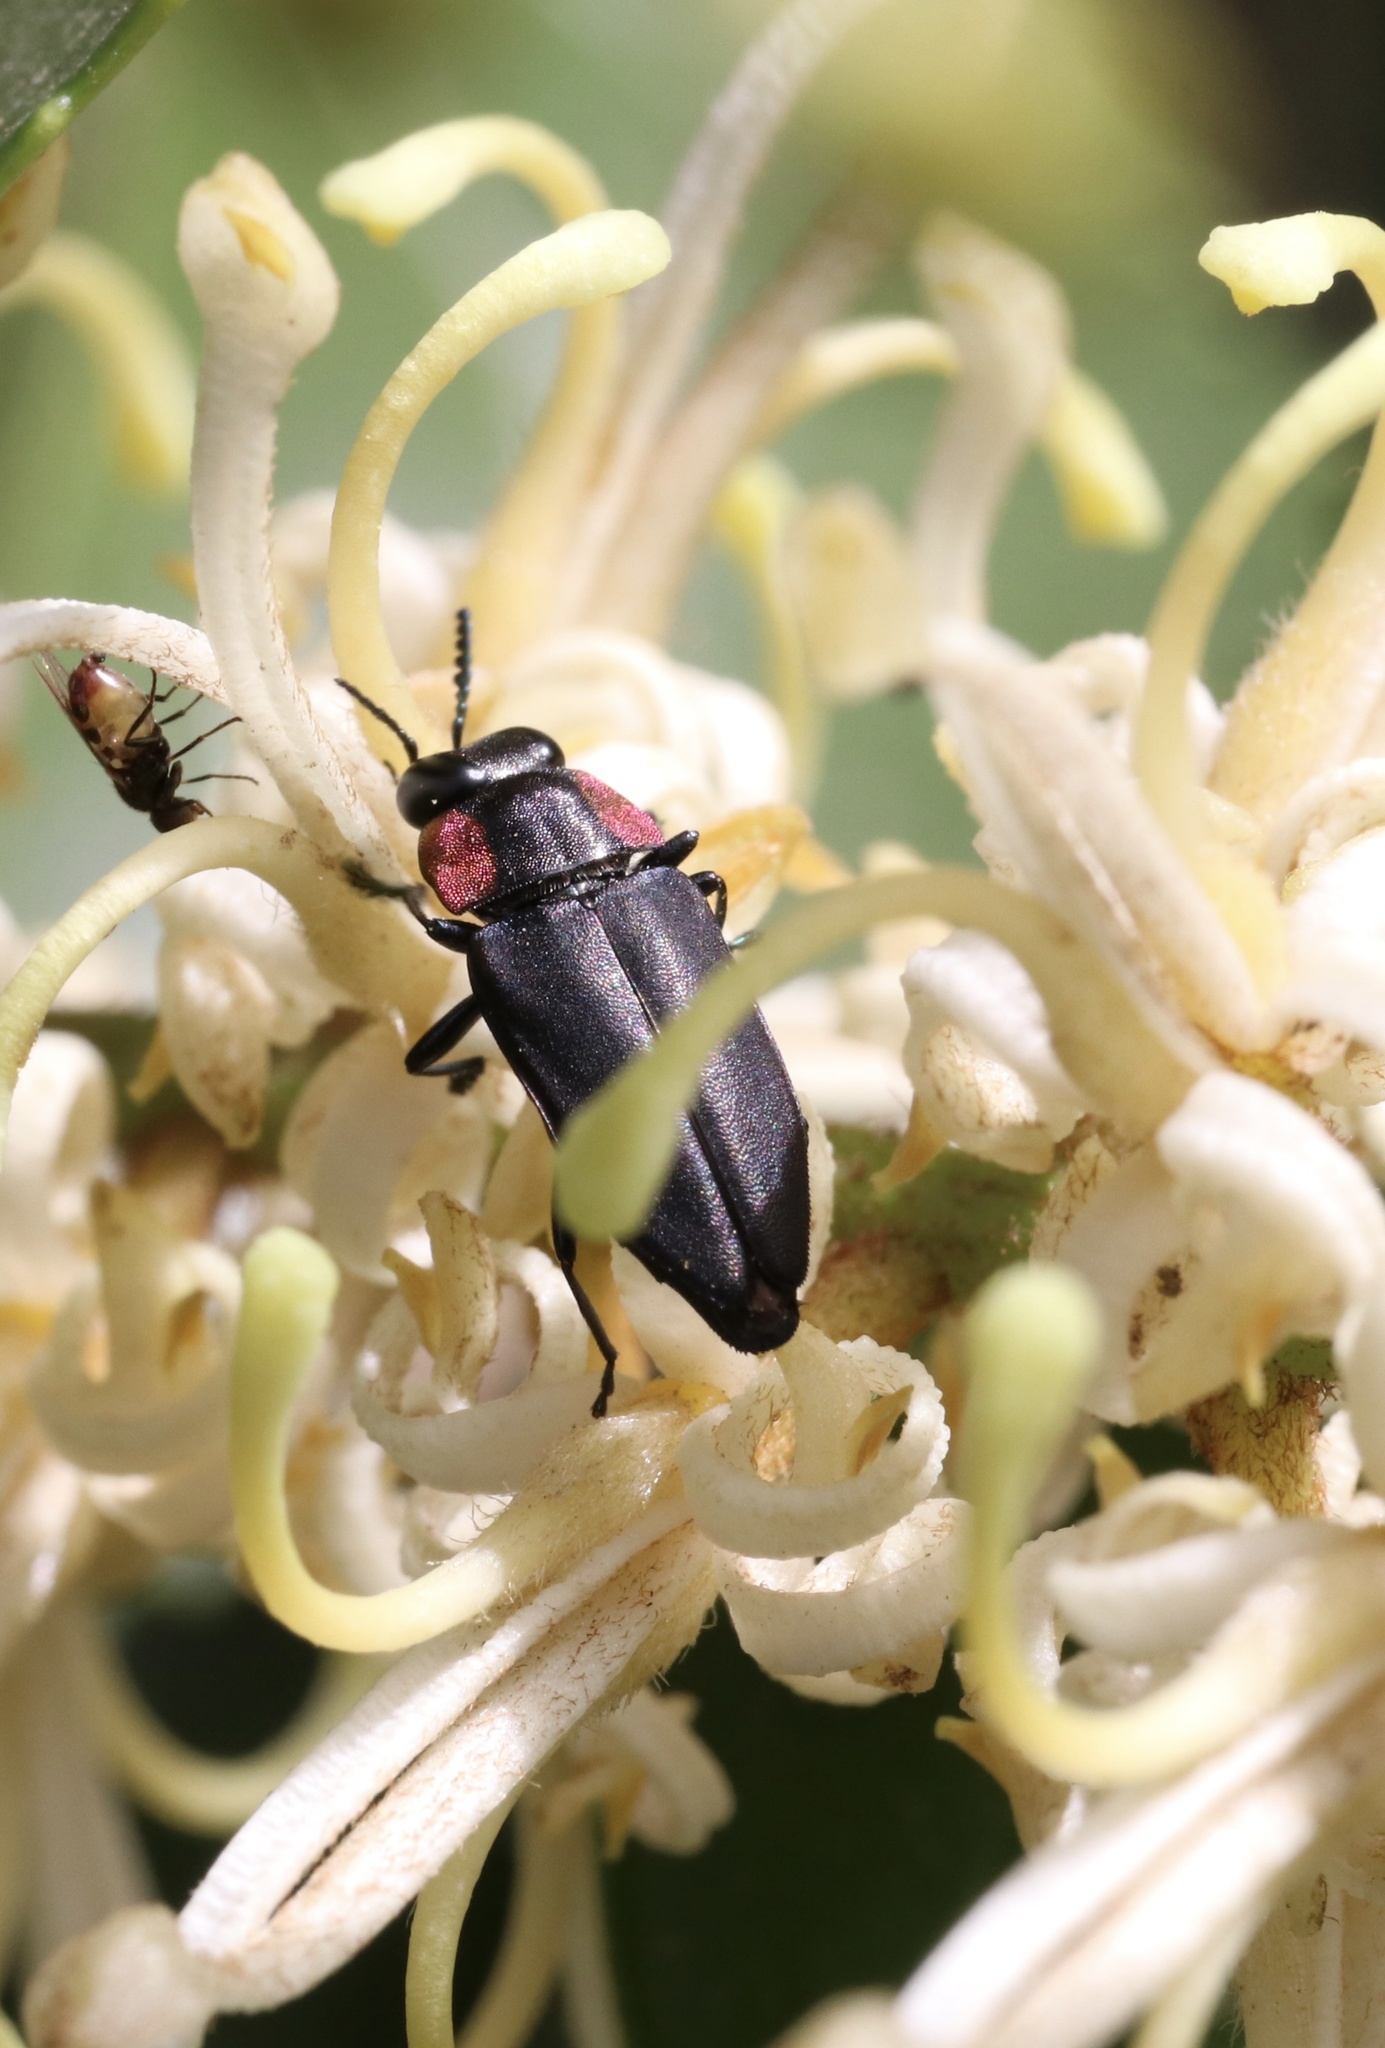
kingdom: Animalia
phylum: Arthropoda
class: Insecta
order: Coleoptera
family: Buprestidae
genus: Romanophora
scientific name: Romanophora verecunda
